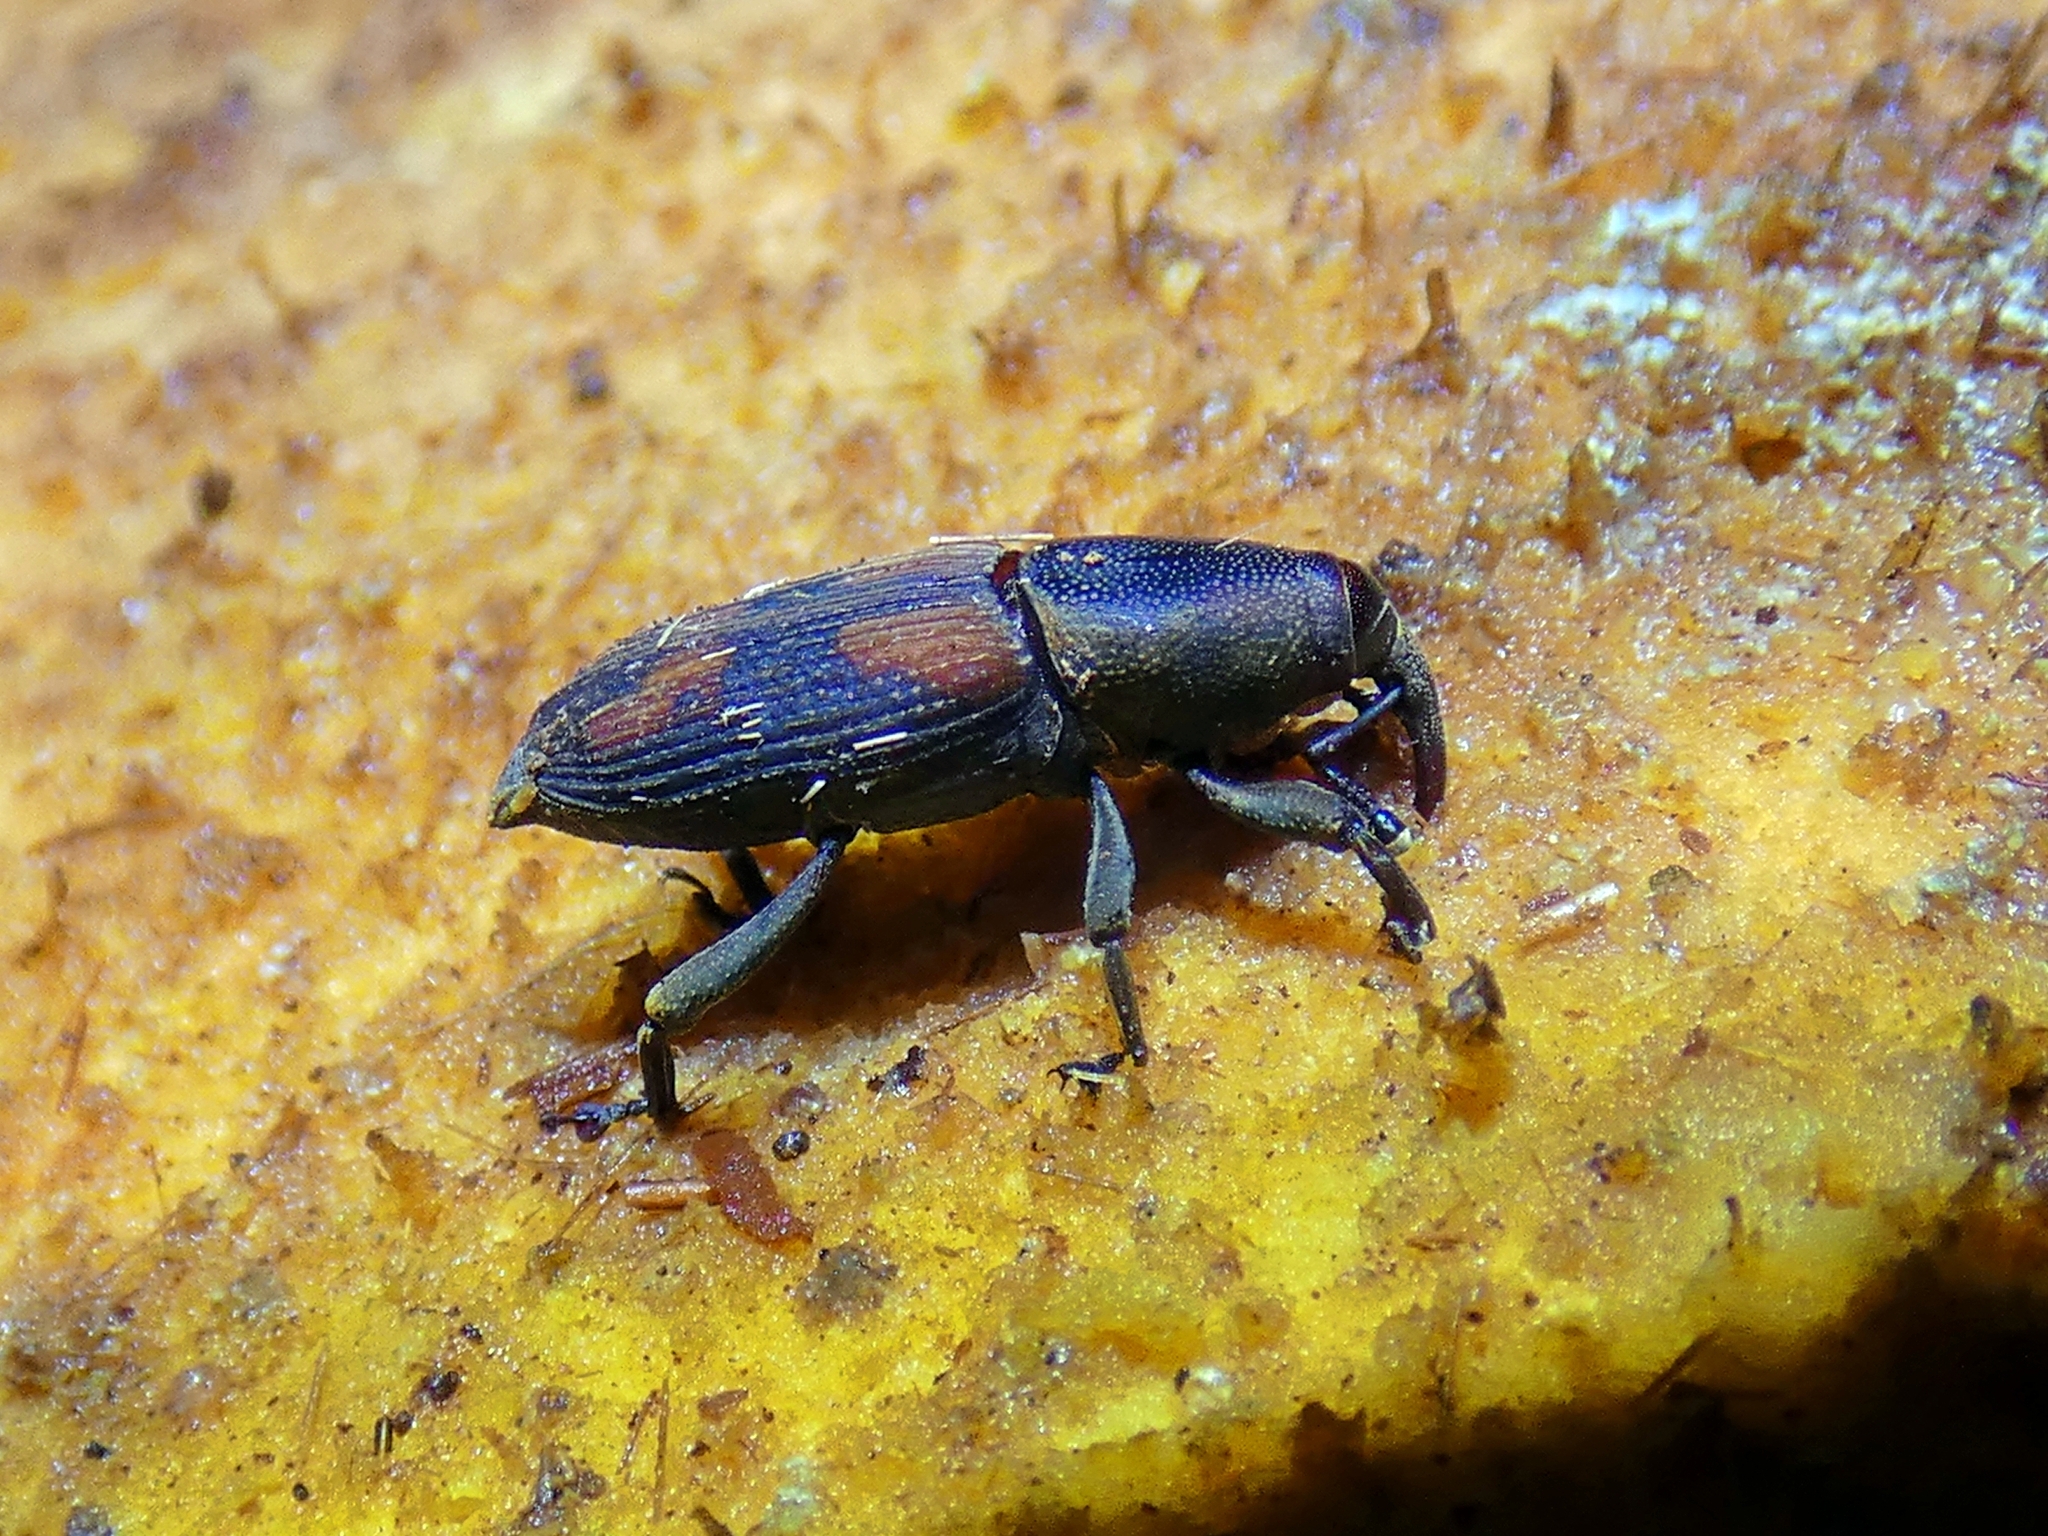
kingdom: Animalia
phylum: Arthropoda
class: Insecta
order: Coleoptera
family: Dryophthoridae
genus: Rhabdoscelus
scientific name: Rhabdoscelus obscurus
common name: Cane weevil borer
